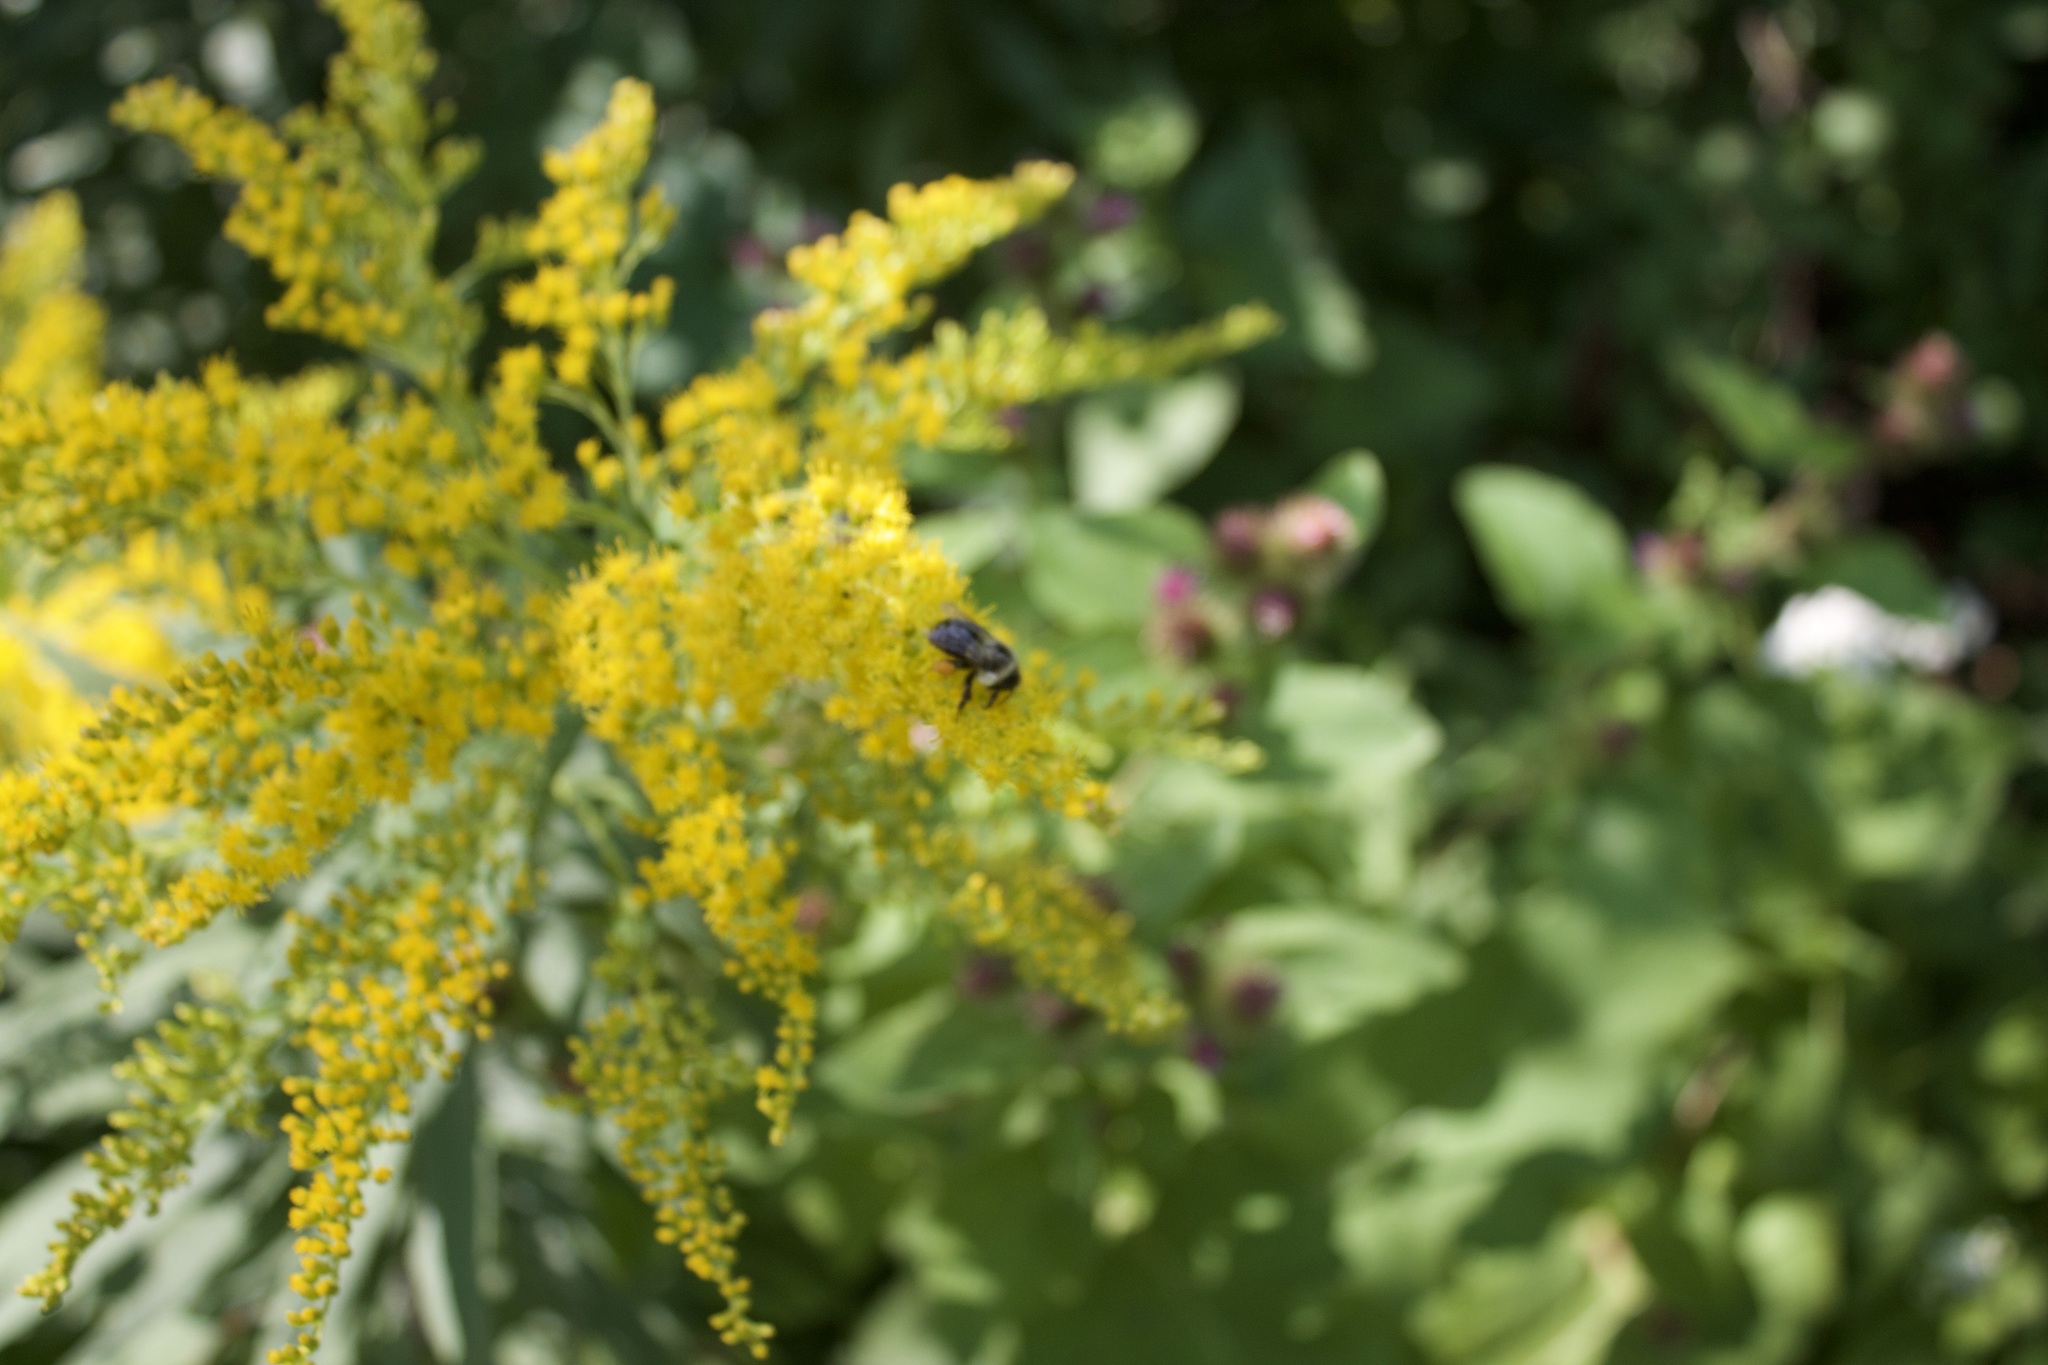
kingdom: Animalia
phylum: Arthropoda
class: Insecta
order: Hymenoptera
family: Apidae
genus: Bombus
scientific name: Bombus impatiens
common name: Common eastern bumble bee
